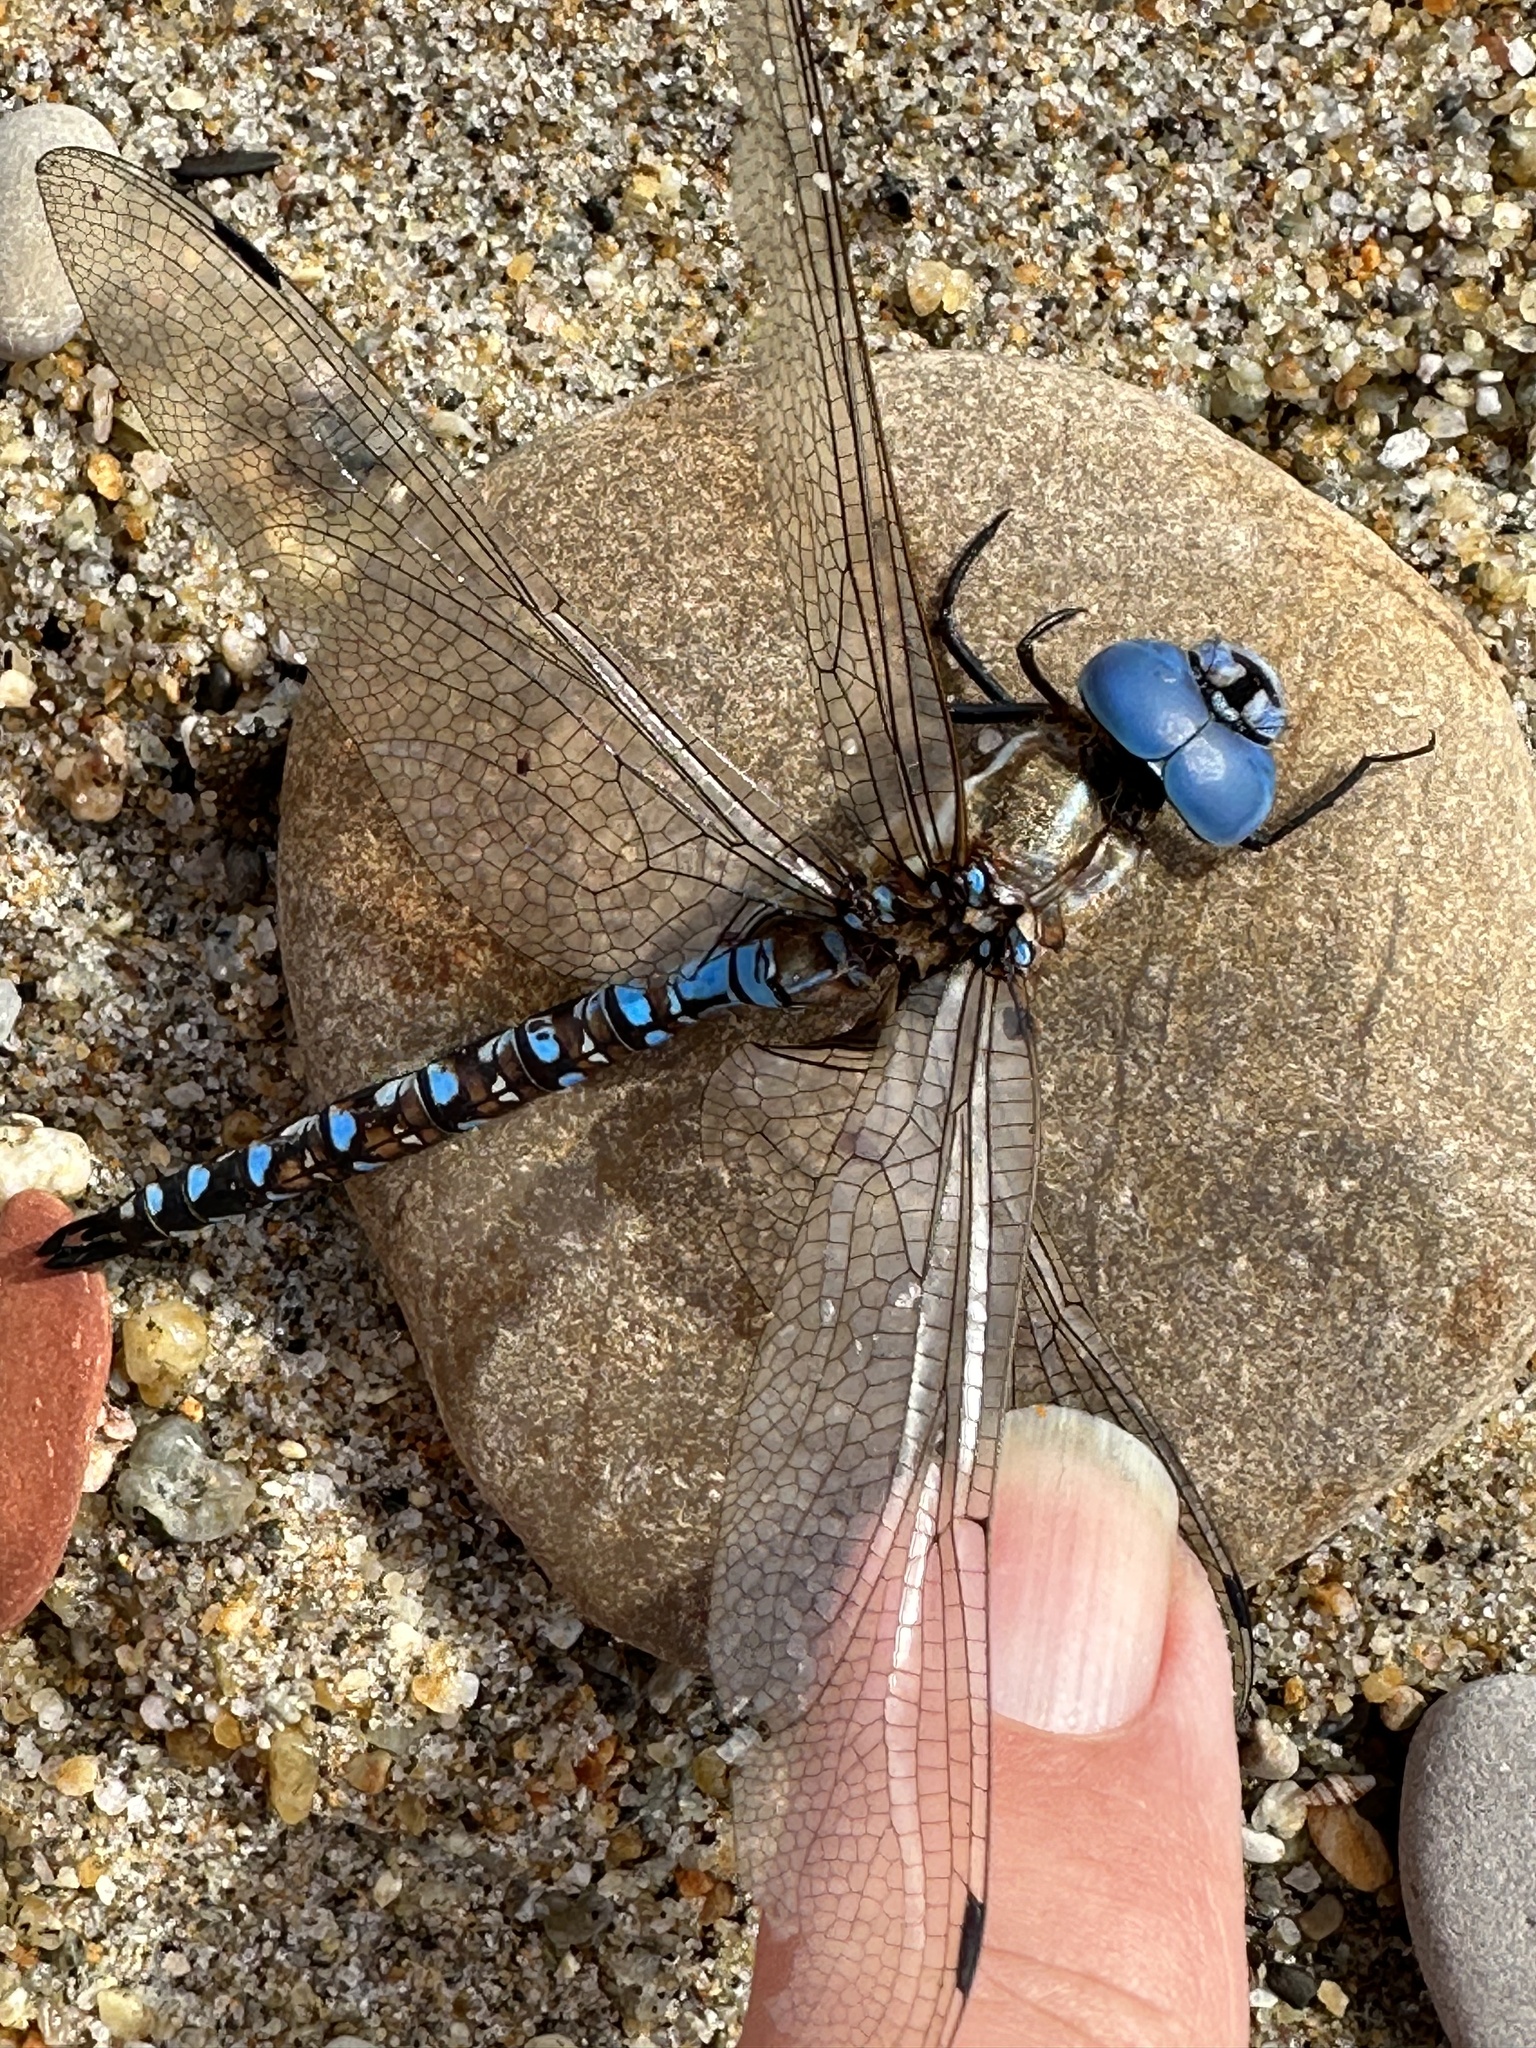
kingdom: Animalia
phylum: Arthropoda
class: Insecta
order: Odonata
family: Aeshnidae
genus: Rhionaeschna
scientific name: Rhionaeschna multicolor
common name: Blue-eyed darner
